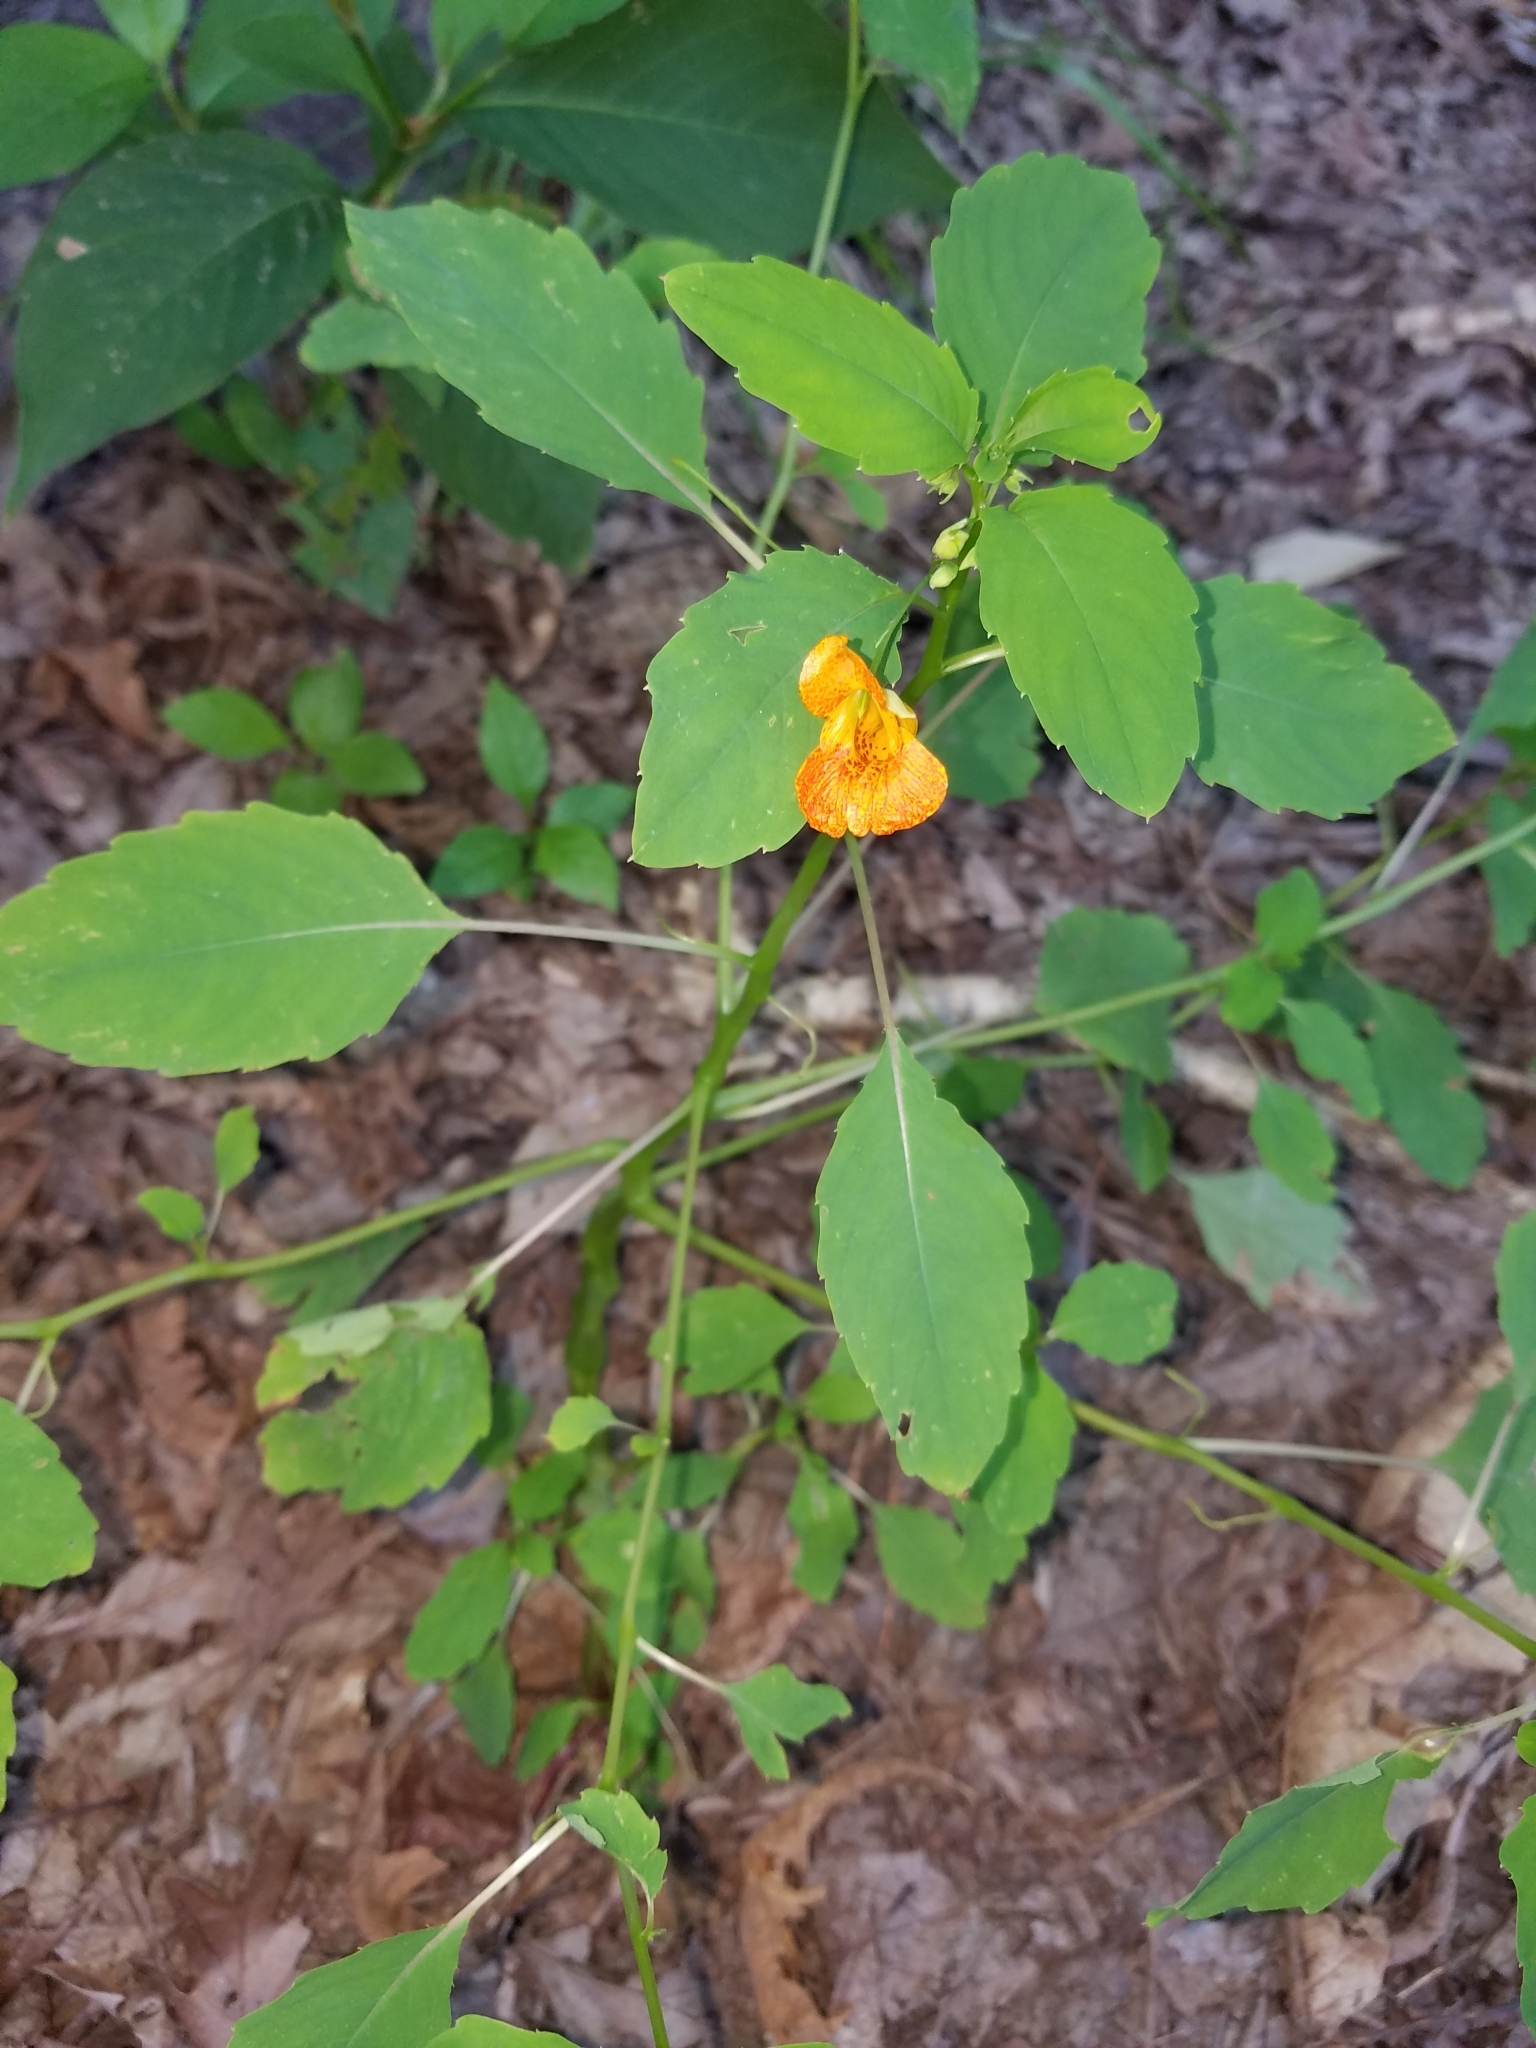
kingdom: Plantae
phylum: Tracheophyta
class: Magnoliopsida
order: Ericales
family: Balsaminaceae
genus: Impatiens
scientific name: Impatiens capensis
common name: Orange balsam
